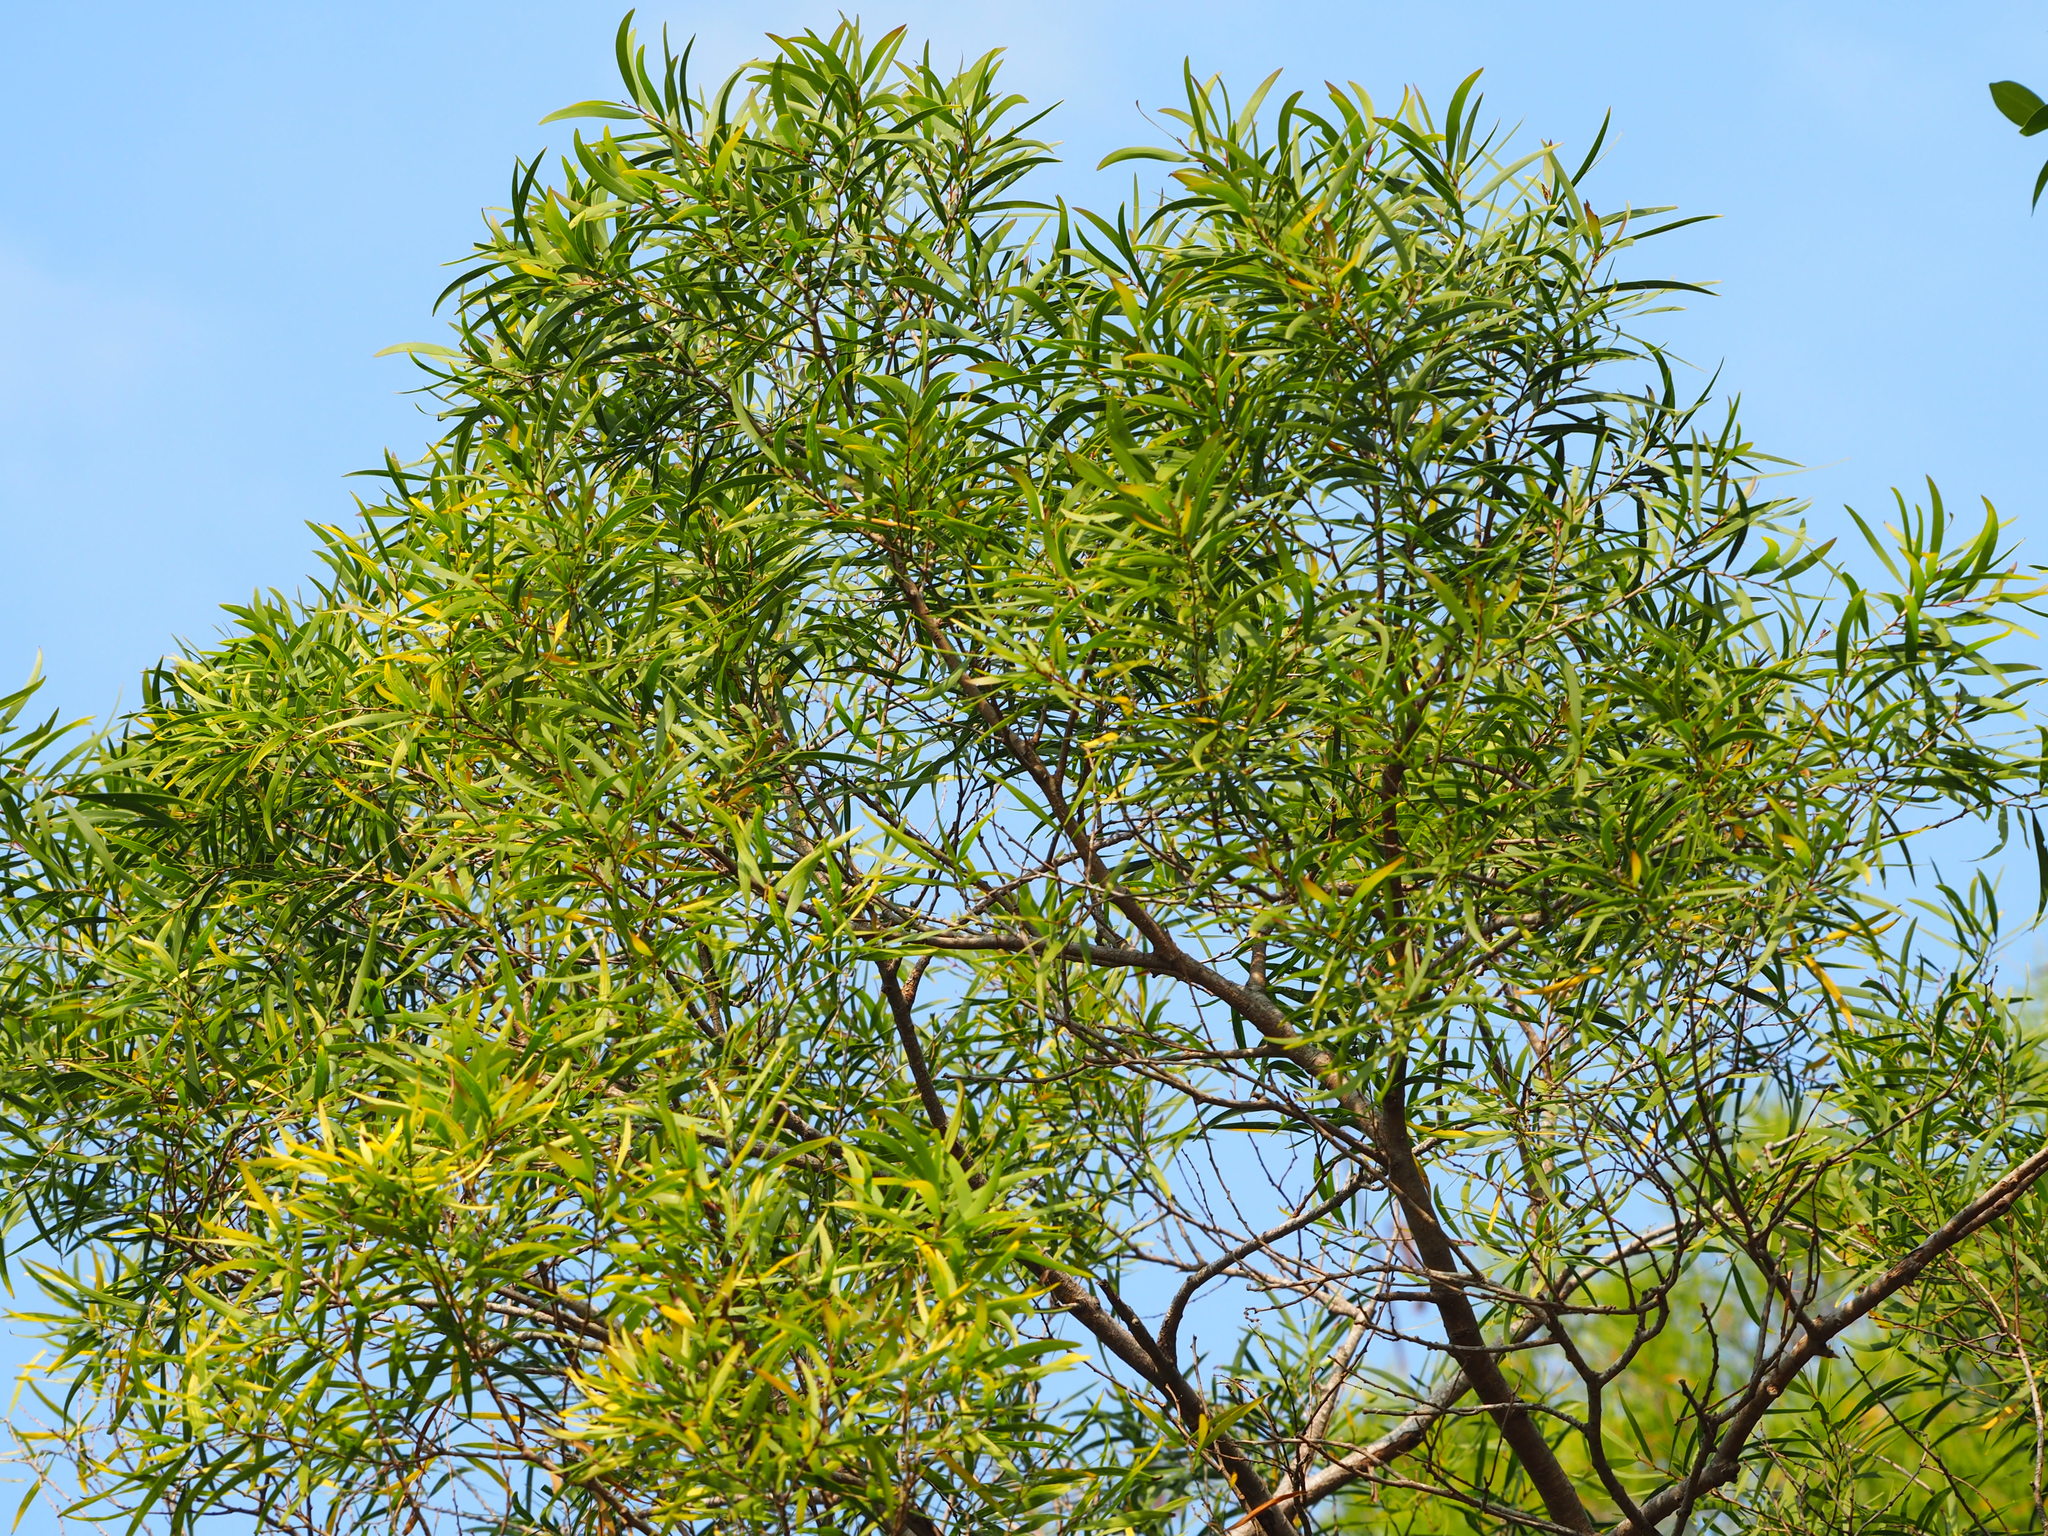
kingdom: Plantae
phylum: Tracheophyta
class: Magnoliopsida
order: Fabales
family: Fabaceae
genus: Acacia
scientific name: Acacia confusa
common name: Formosan koa
